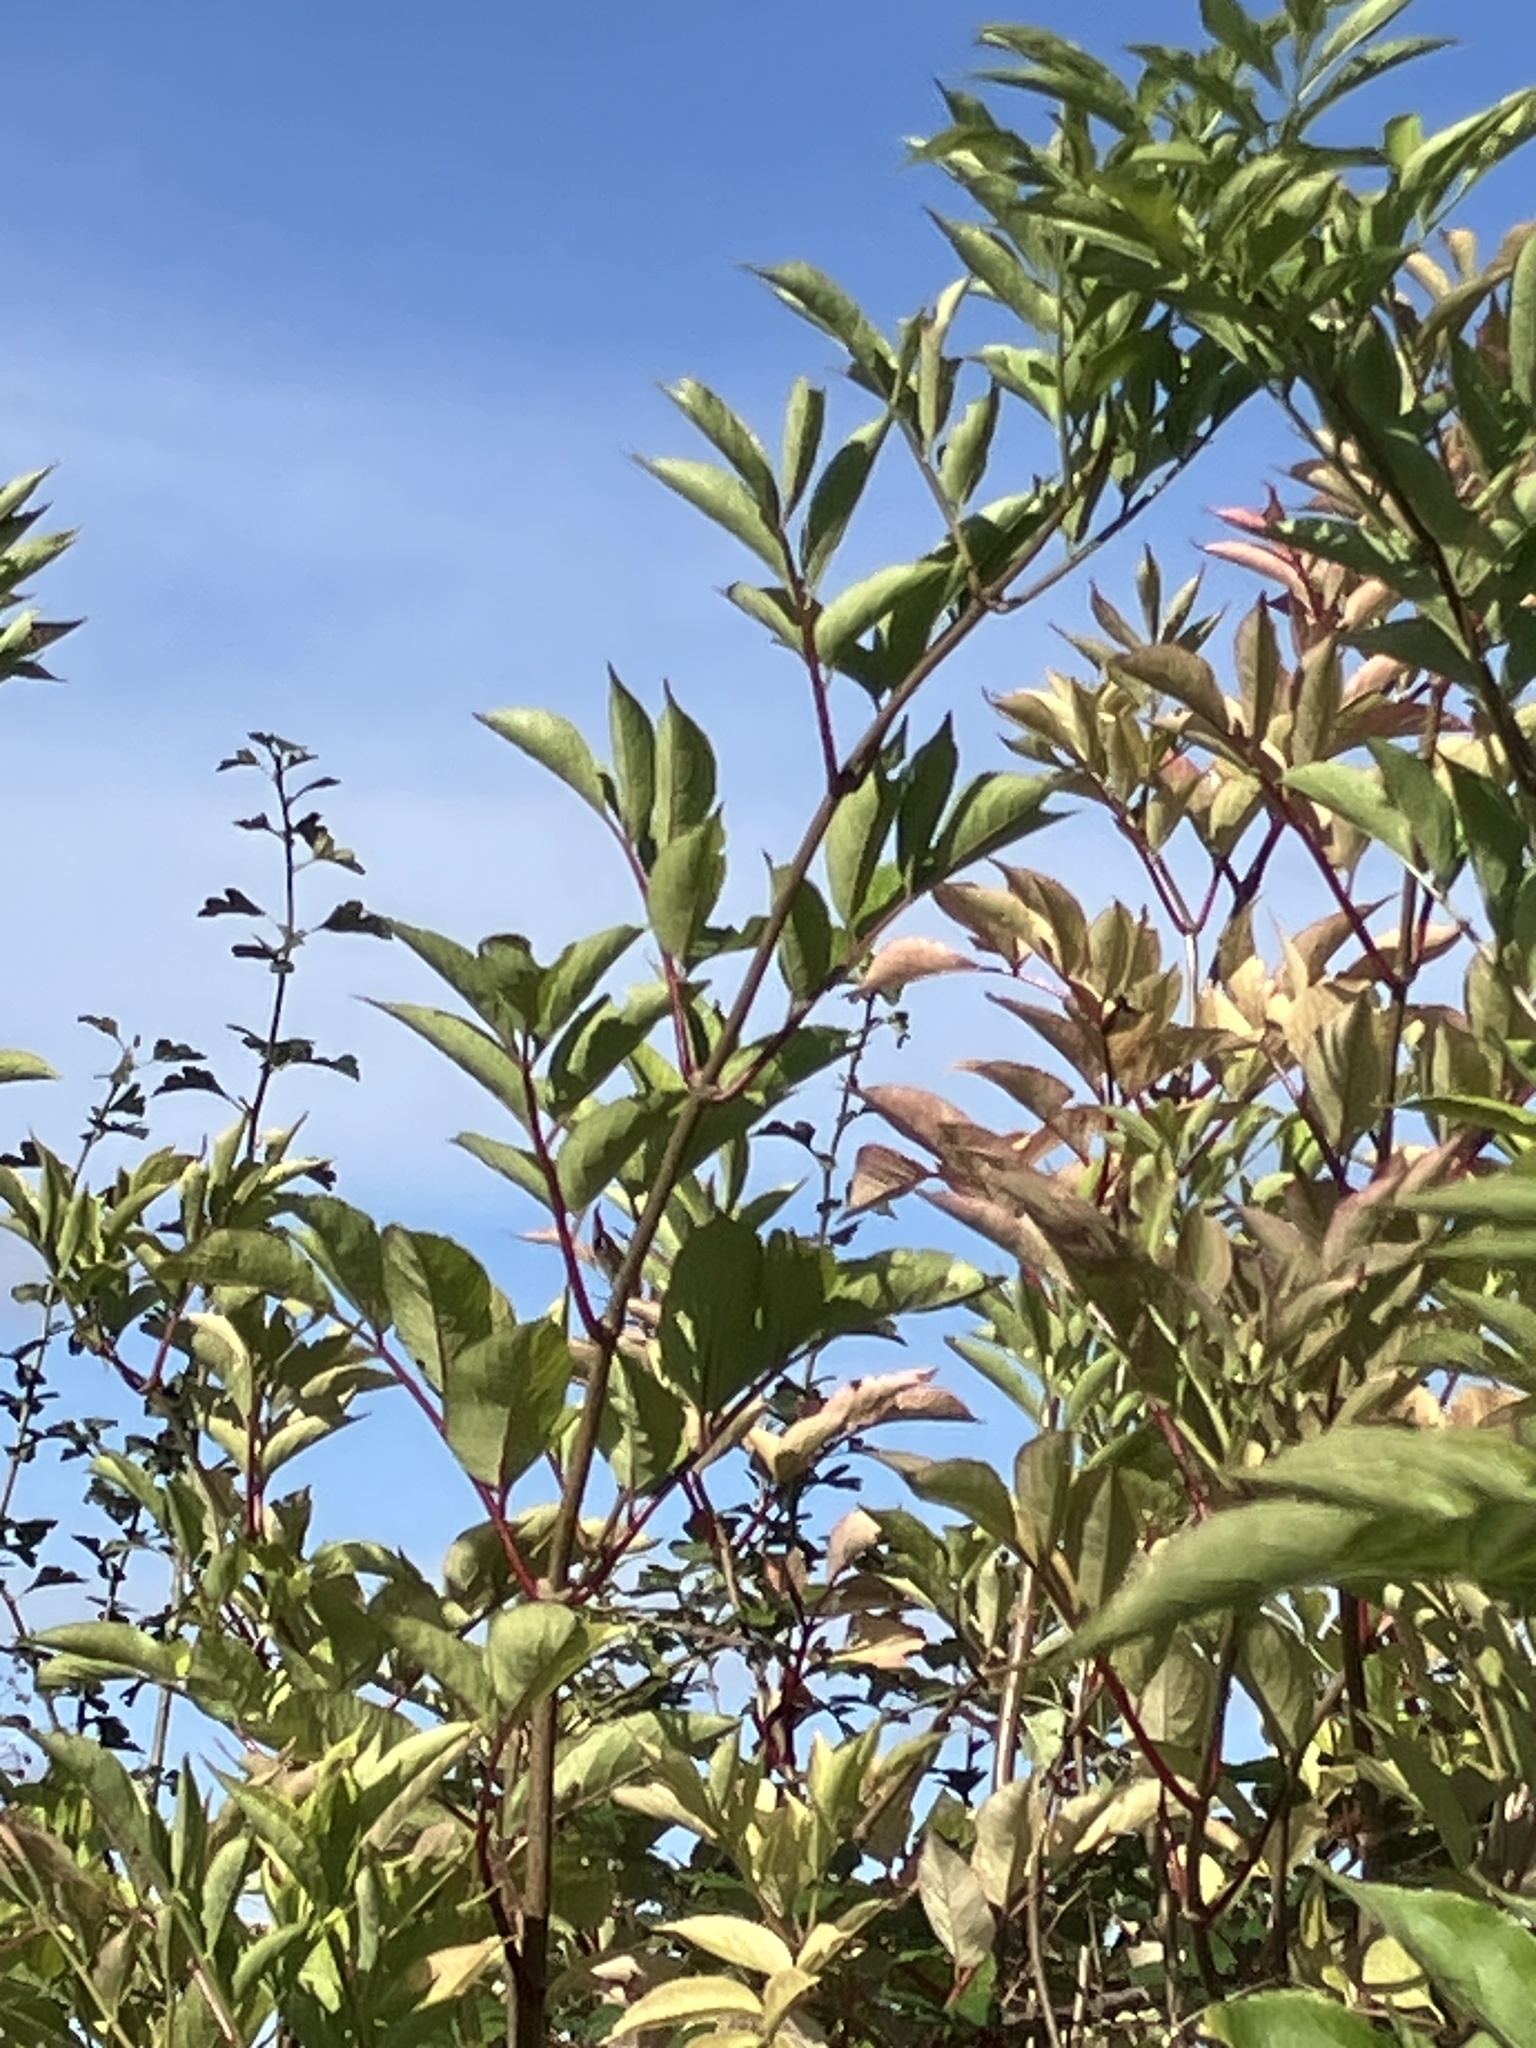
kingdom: Plantae
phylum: Tracheophyta
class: Magnoliopsida
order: Dipsacales
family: Viburnaceae
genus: Sambucus
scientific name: Sambucus nigra
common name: Elder
